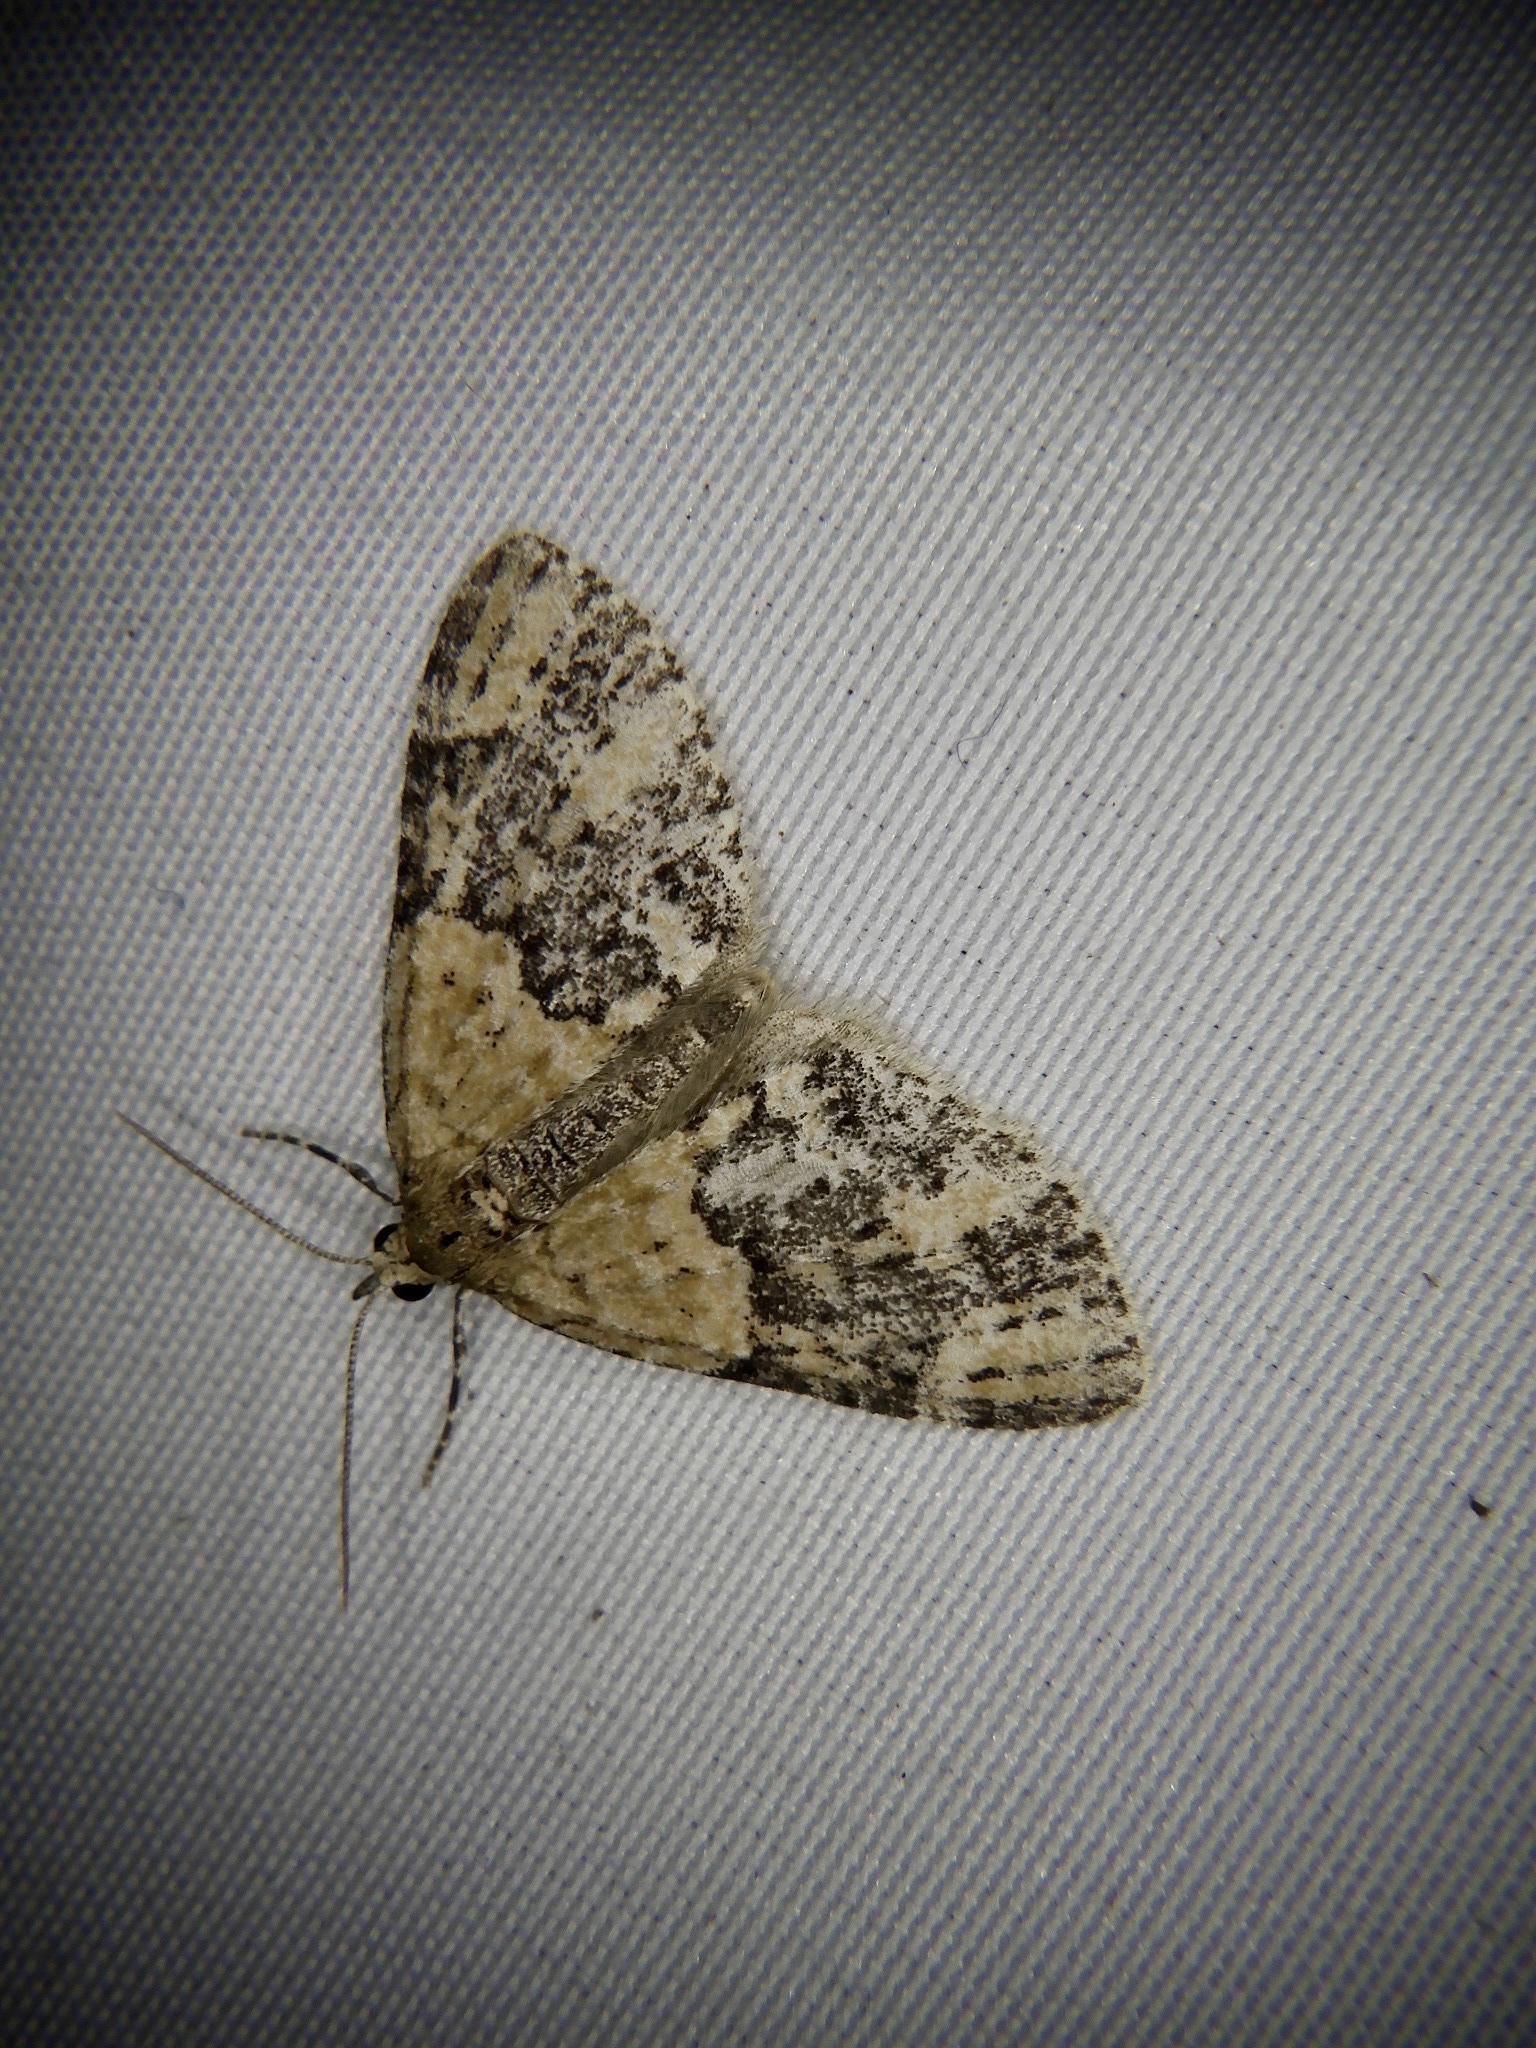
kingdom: Animalia
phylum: Arthropoda
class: Insecta
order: Lepidoptera
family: Geometridae
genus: Acasis
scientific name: Acasis viretata
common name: Yellow-barred brindle
